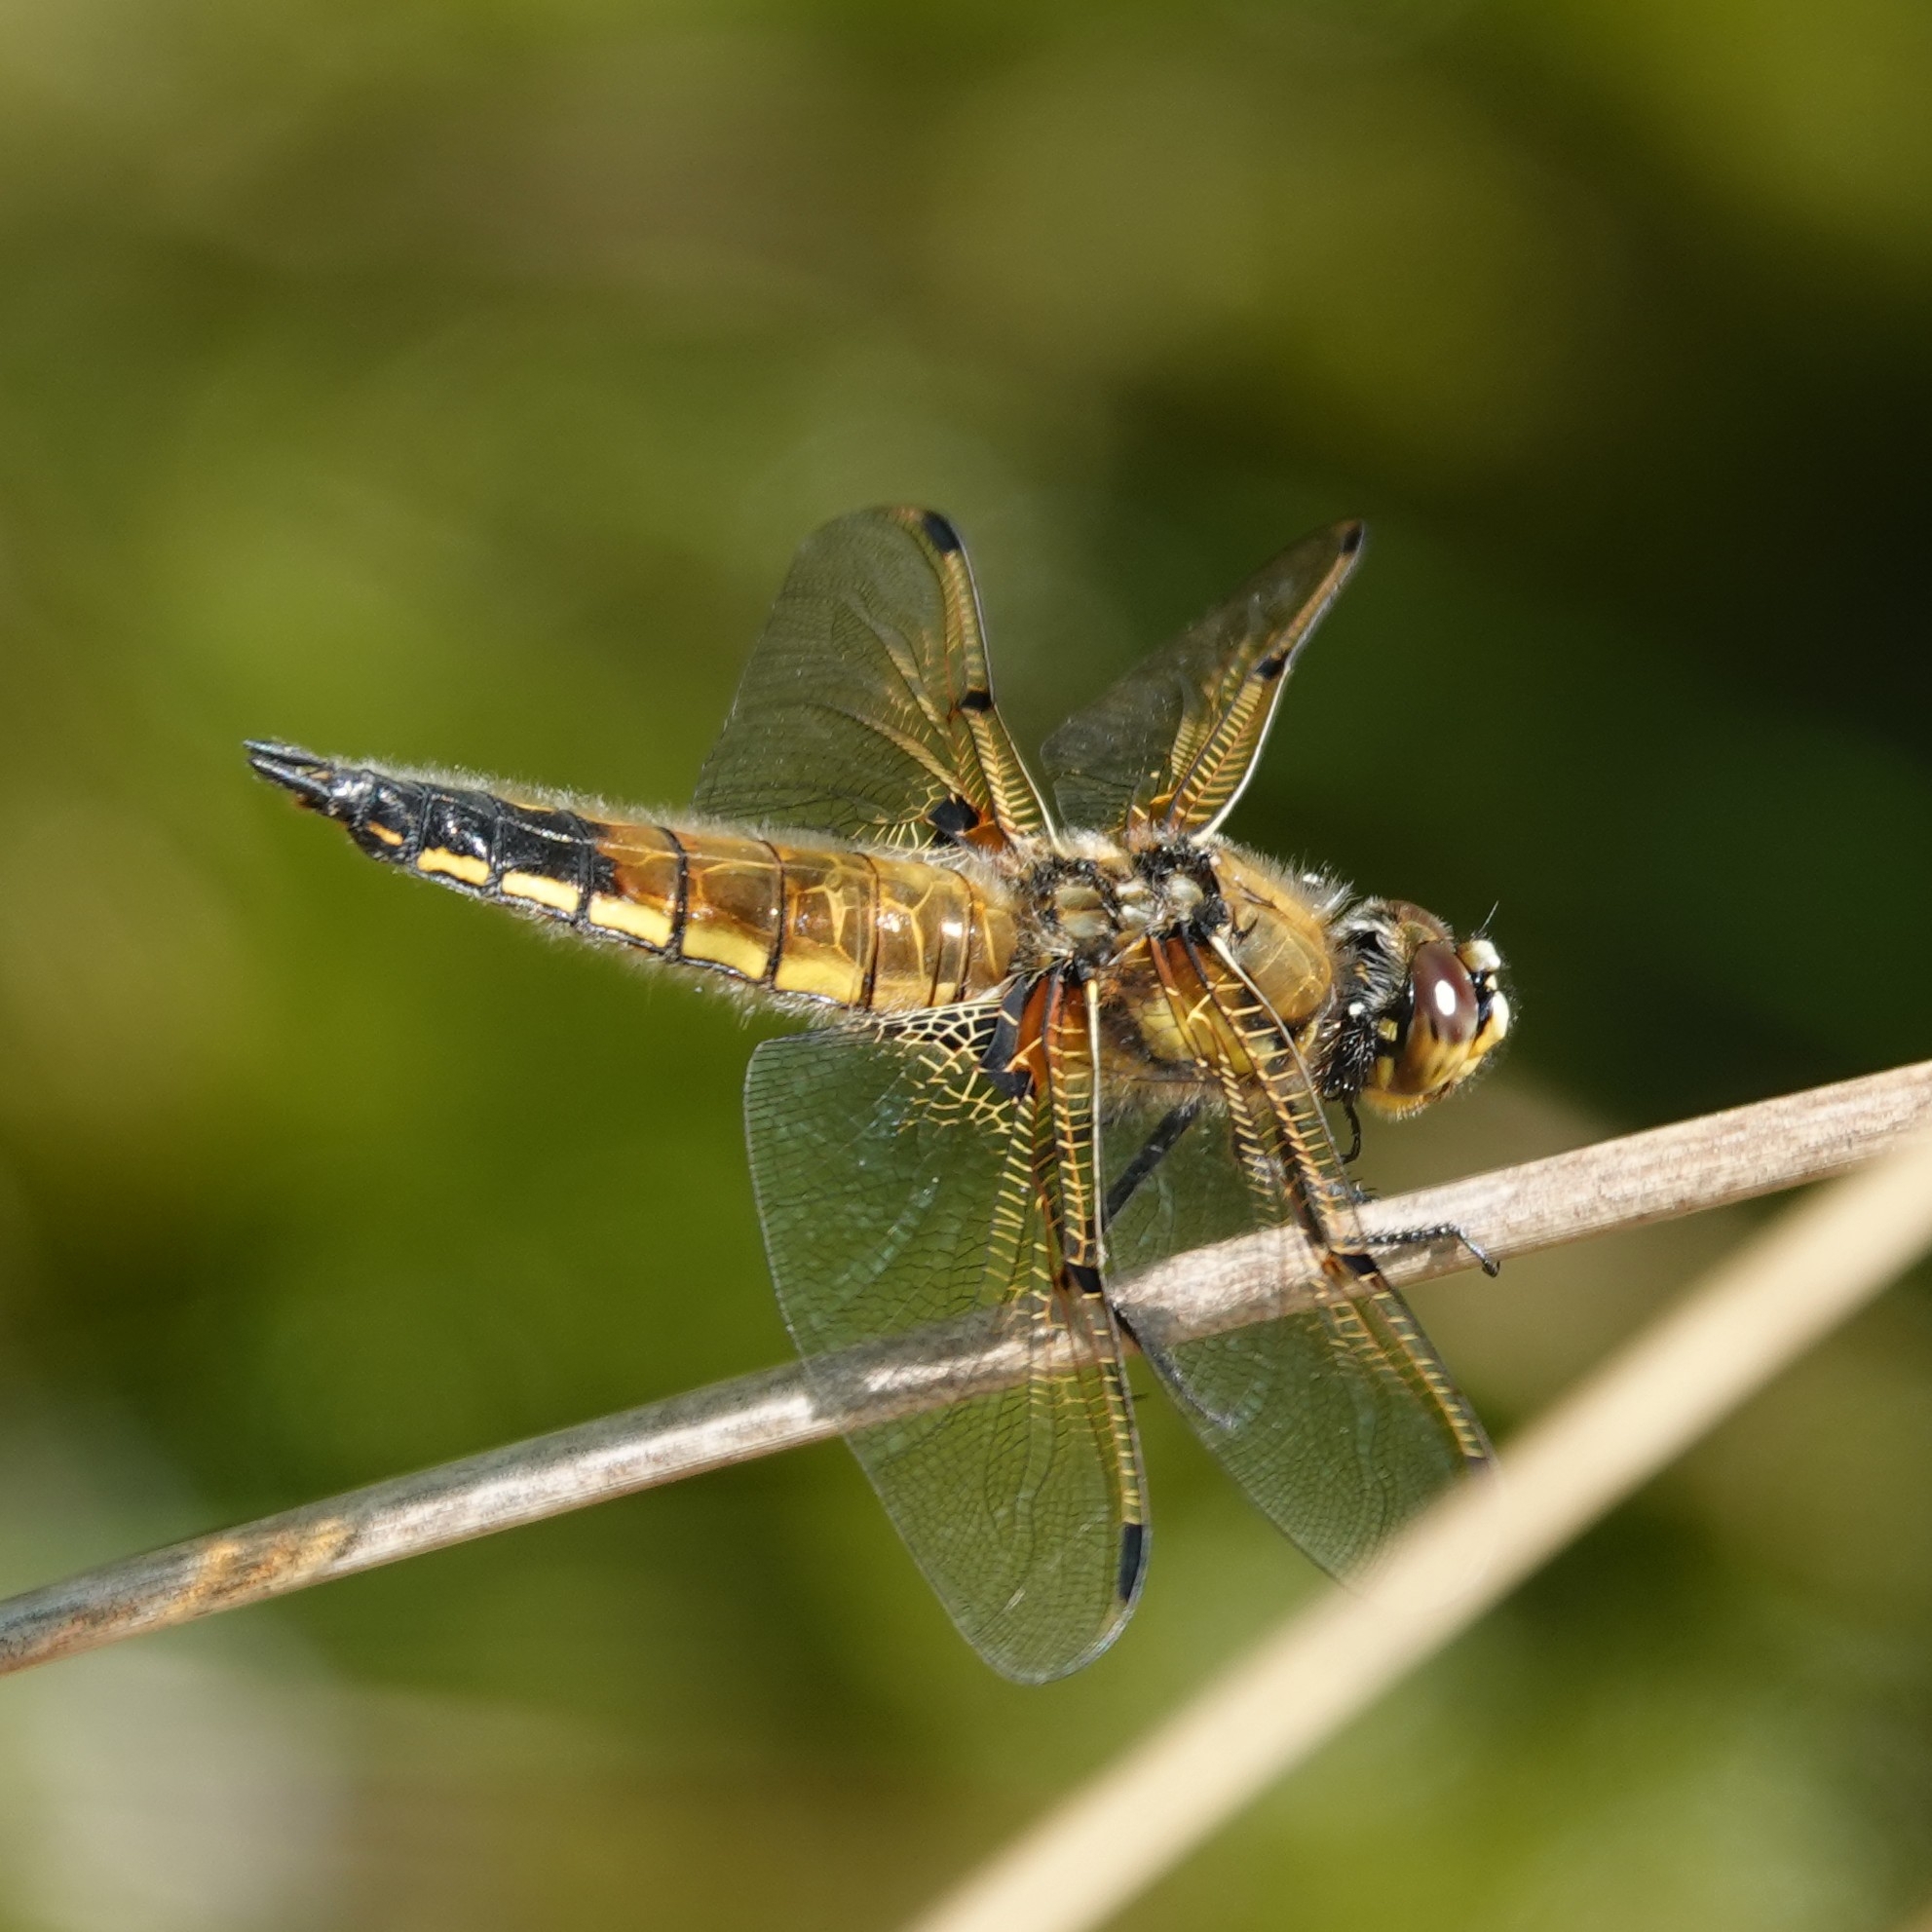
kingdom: Animalia
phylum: Arthropoda
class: Insecta
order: Odonata
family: Libellulidae
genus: Libellula
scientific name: Libellula quadrimaculata
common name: Four-spotted chaser
